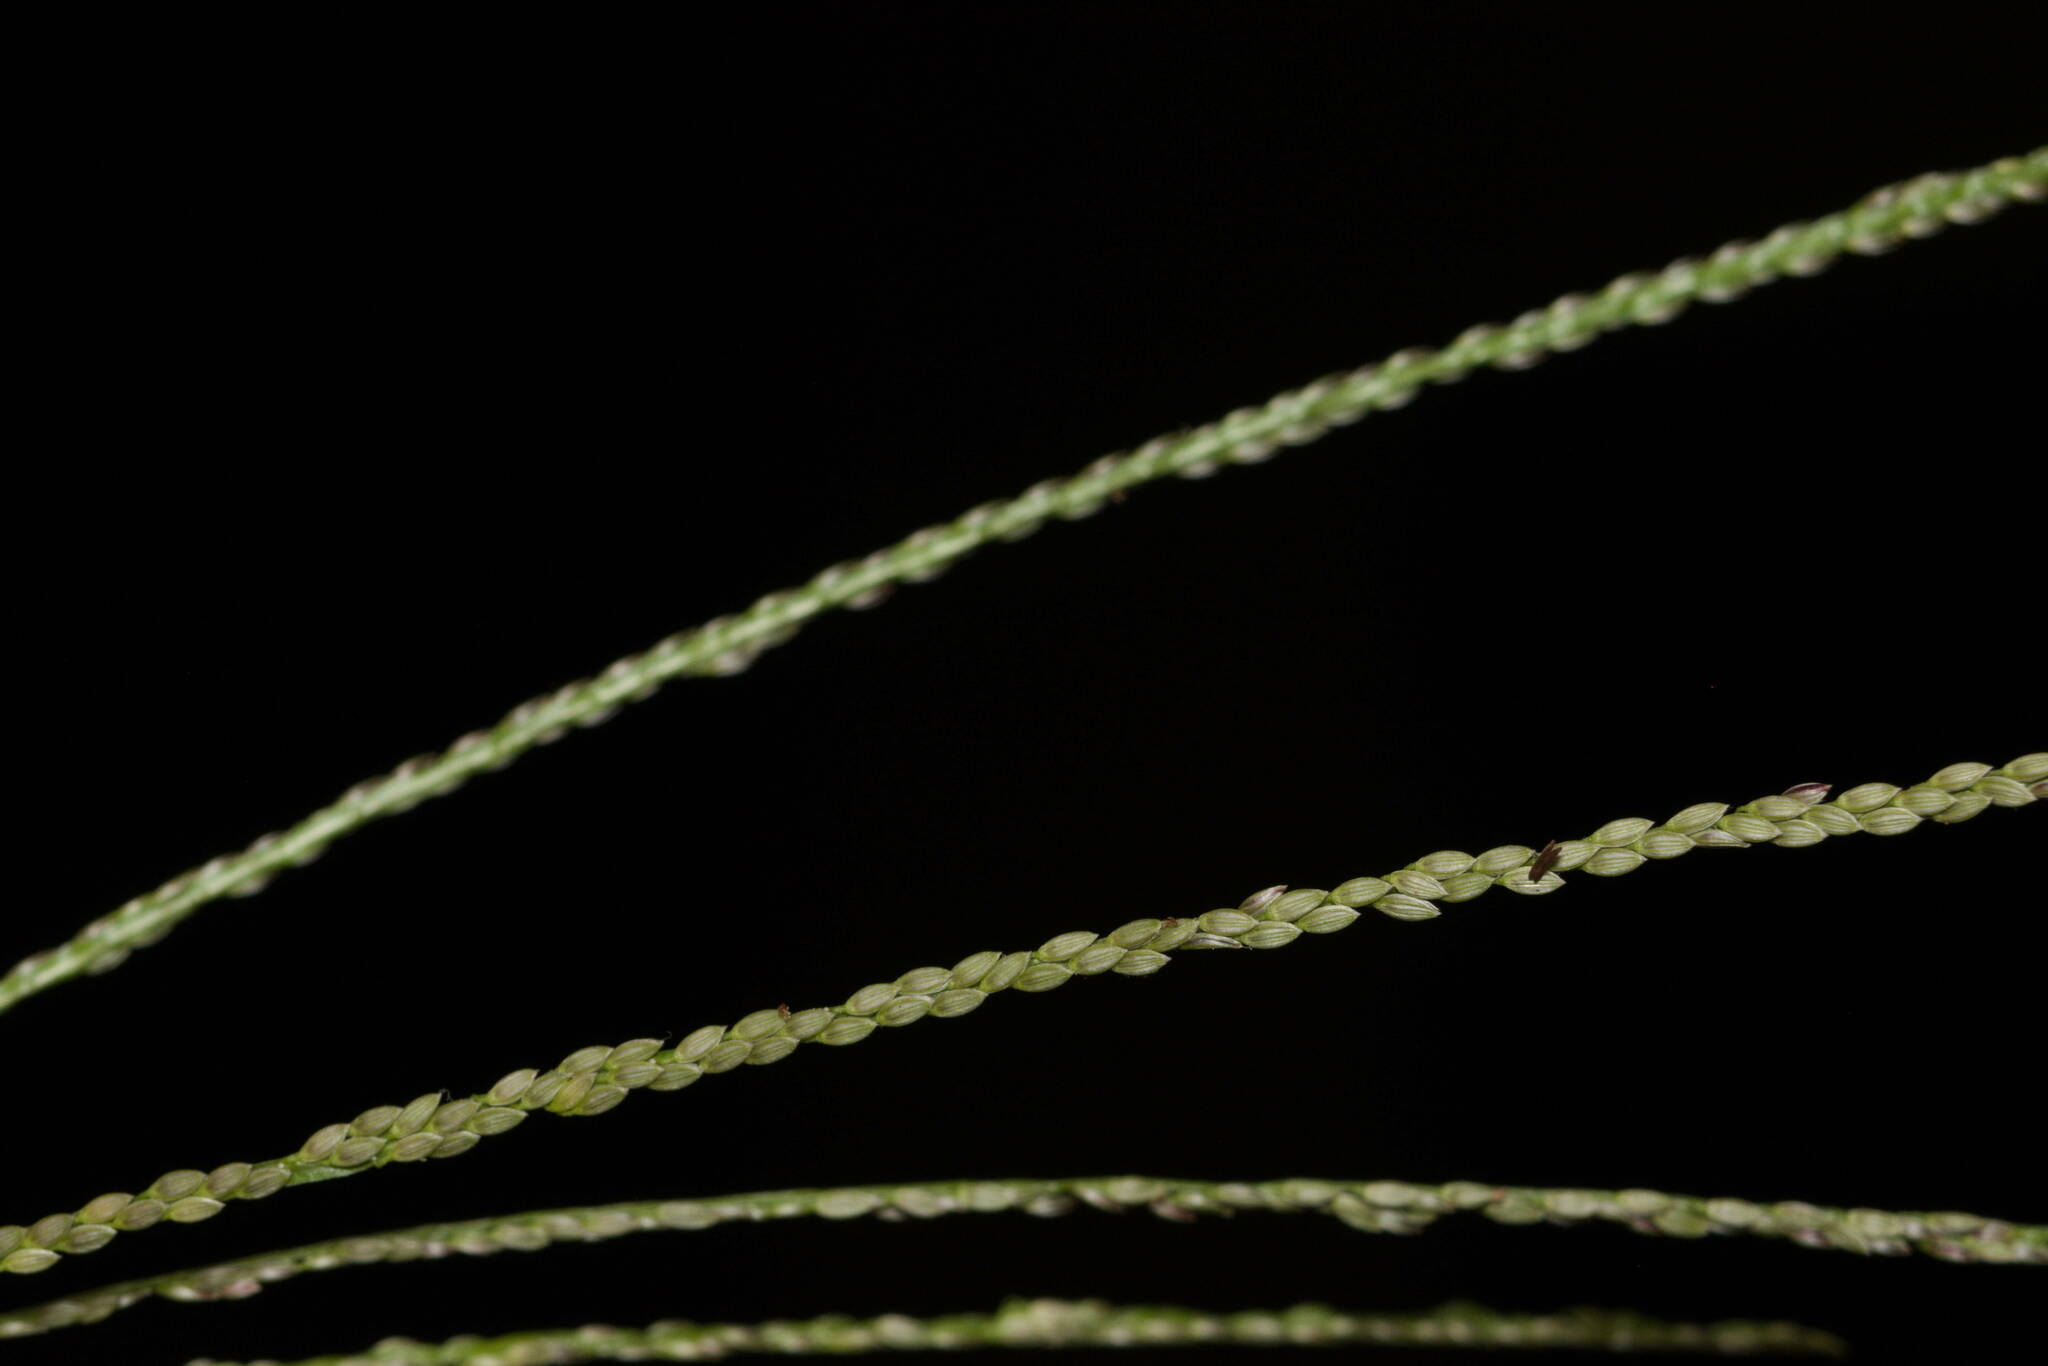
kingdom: Plantae
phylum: Tracheophyta
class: Liliopsida
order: Poales
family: Poaceae
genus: Digitaria
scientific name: Digitaria violascens
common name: Violet crabgrass
